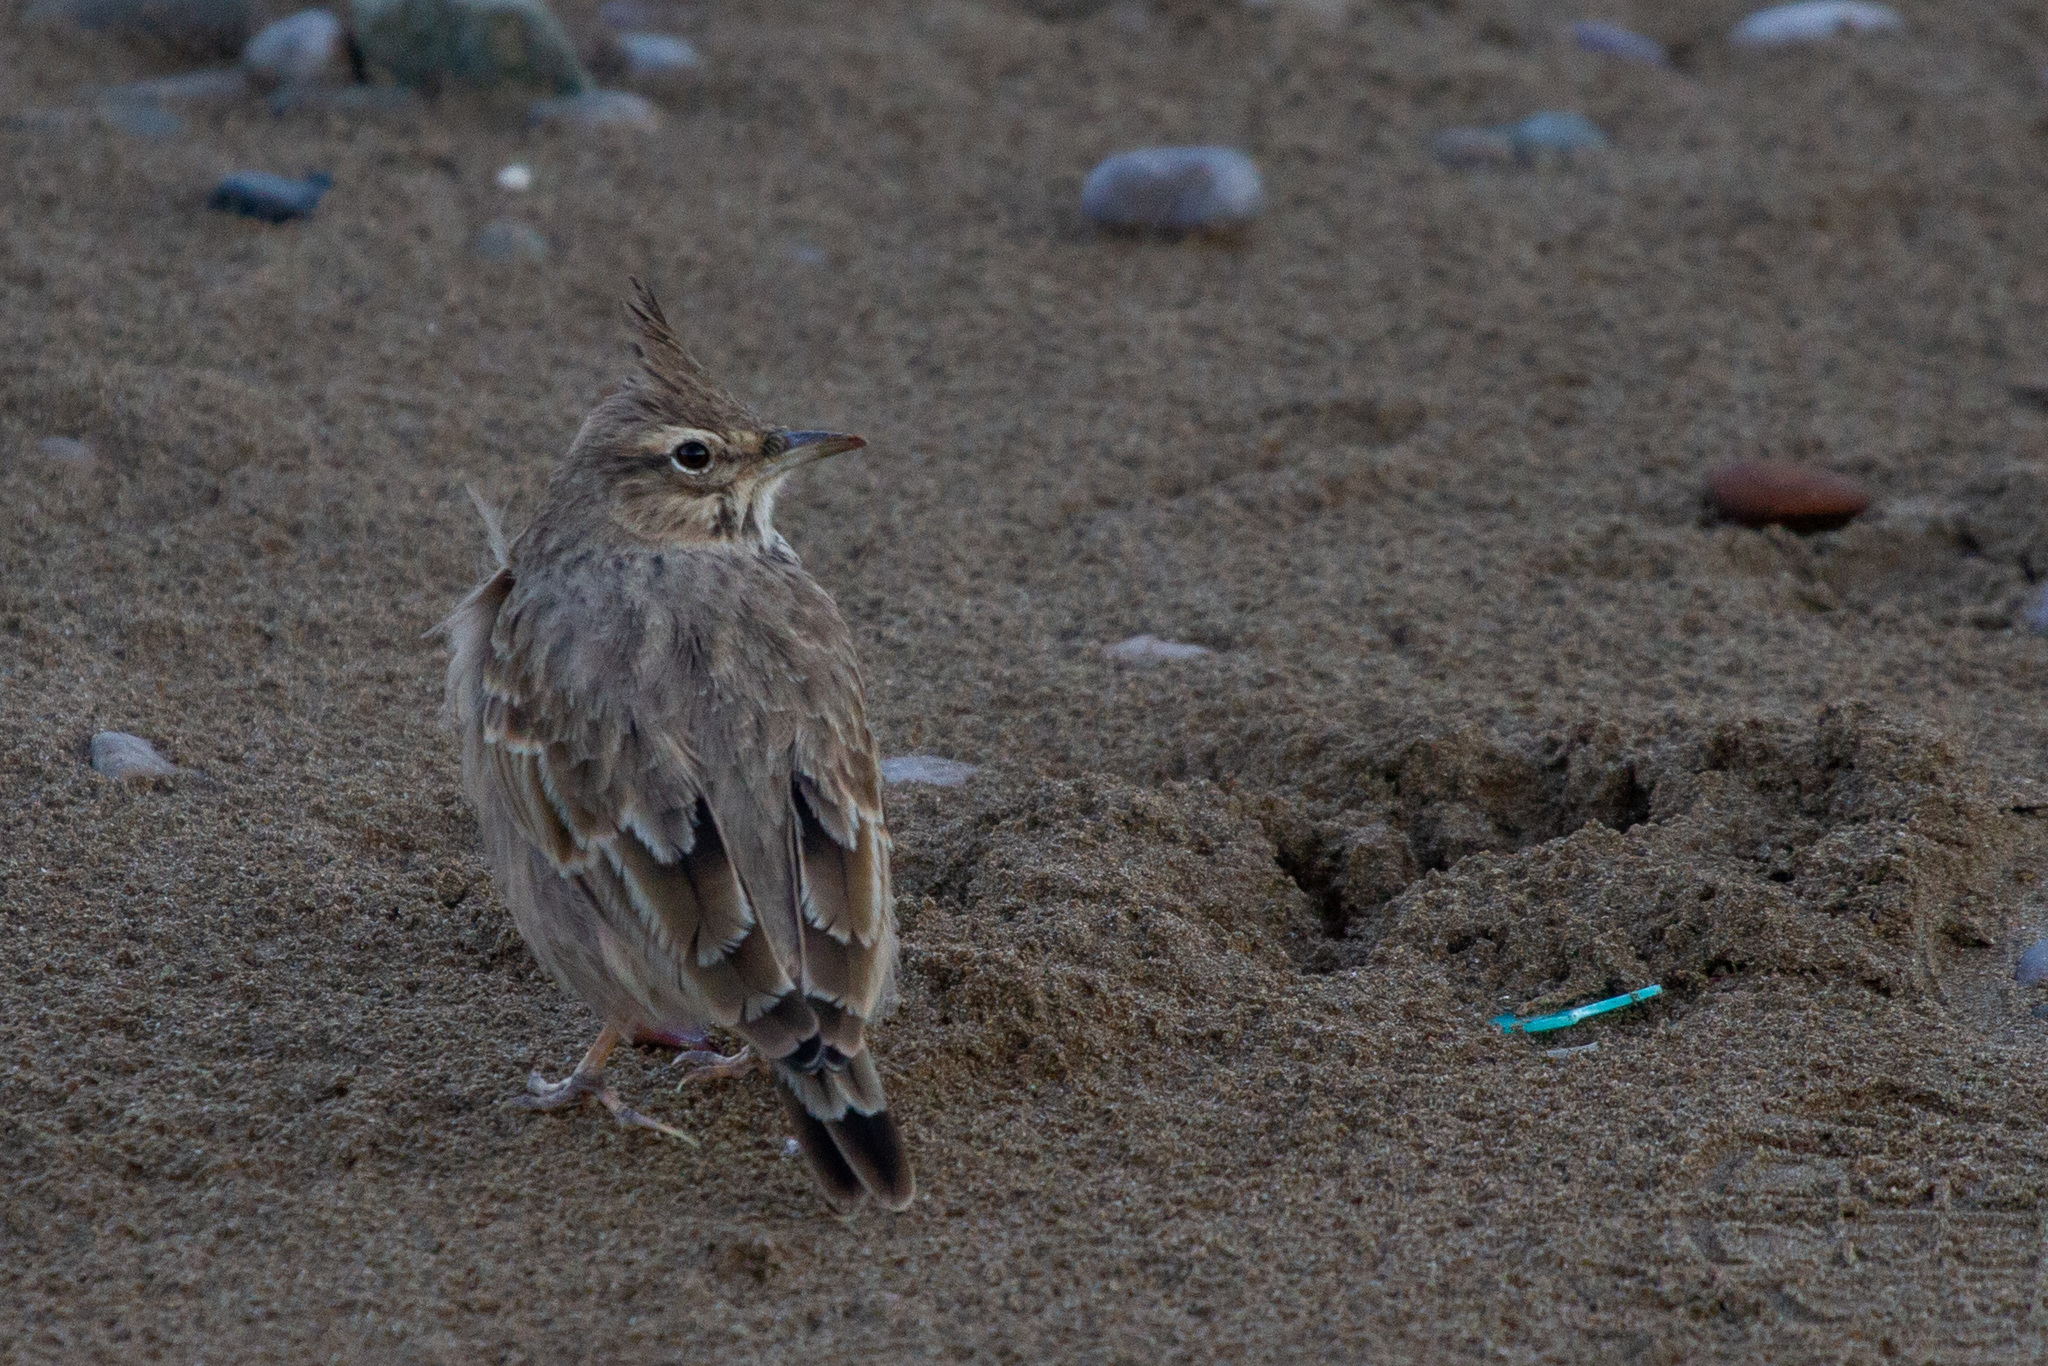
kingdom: Animalia
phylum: Chordata
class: Aves
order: Passeriformes
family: Alaudidae
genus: Galerida
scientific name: Galerida cristata
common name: Crested lark
